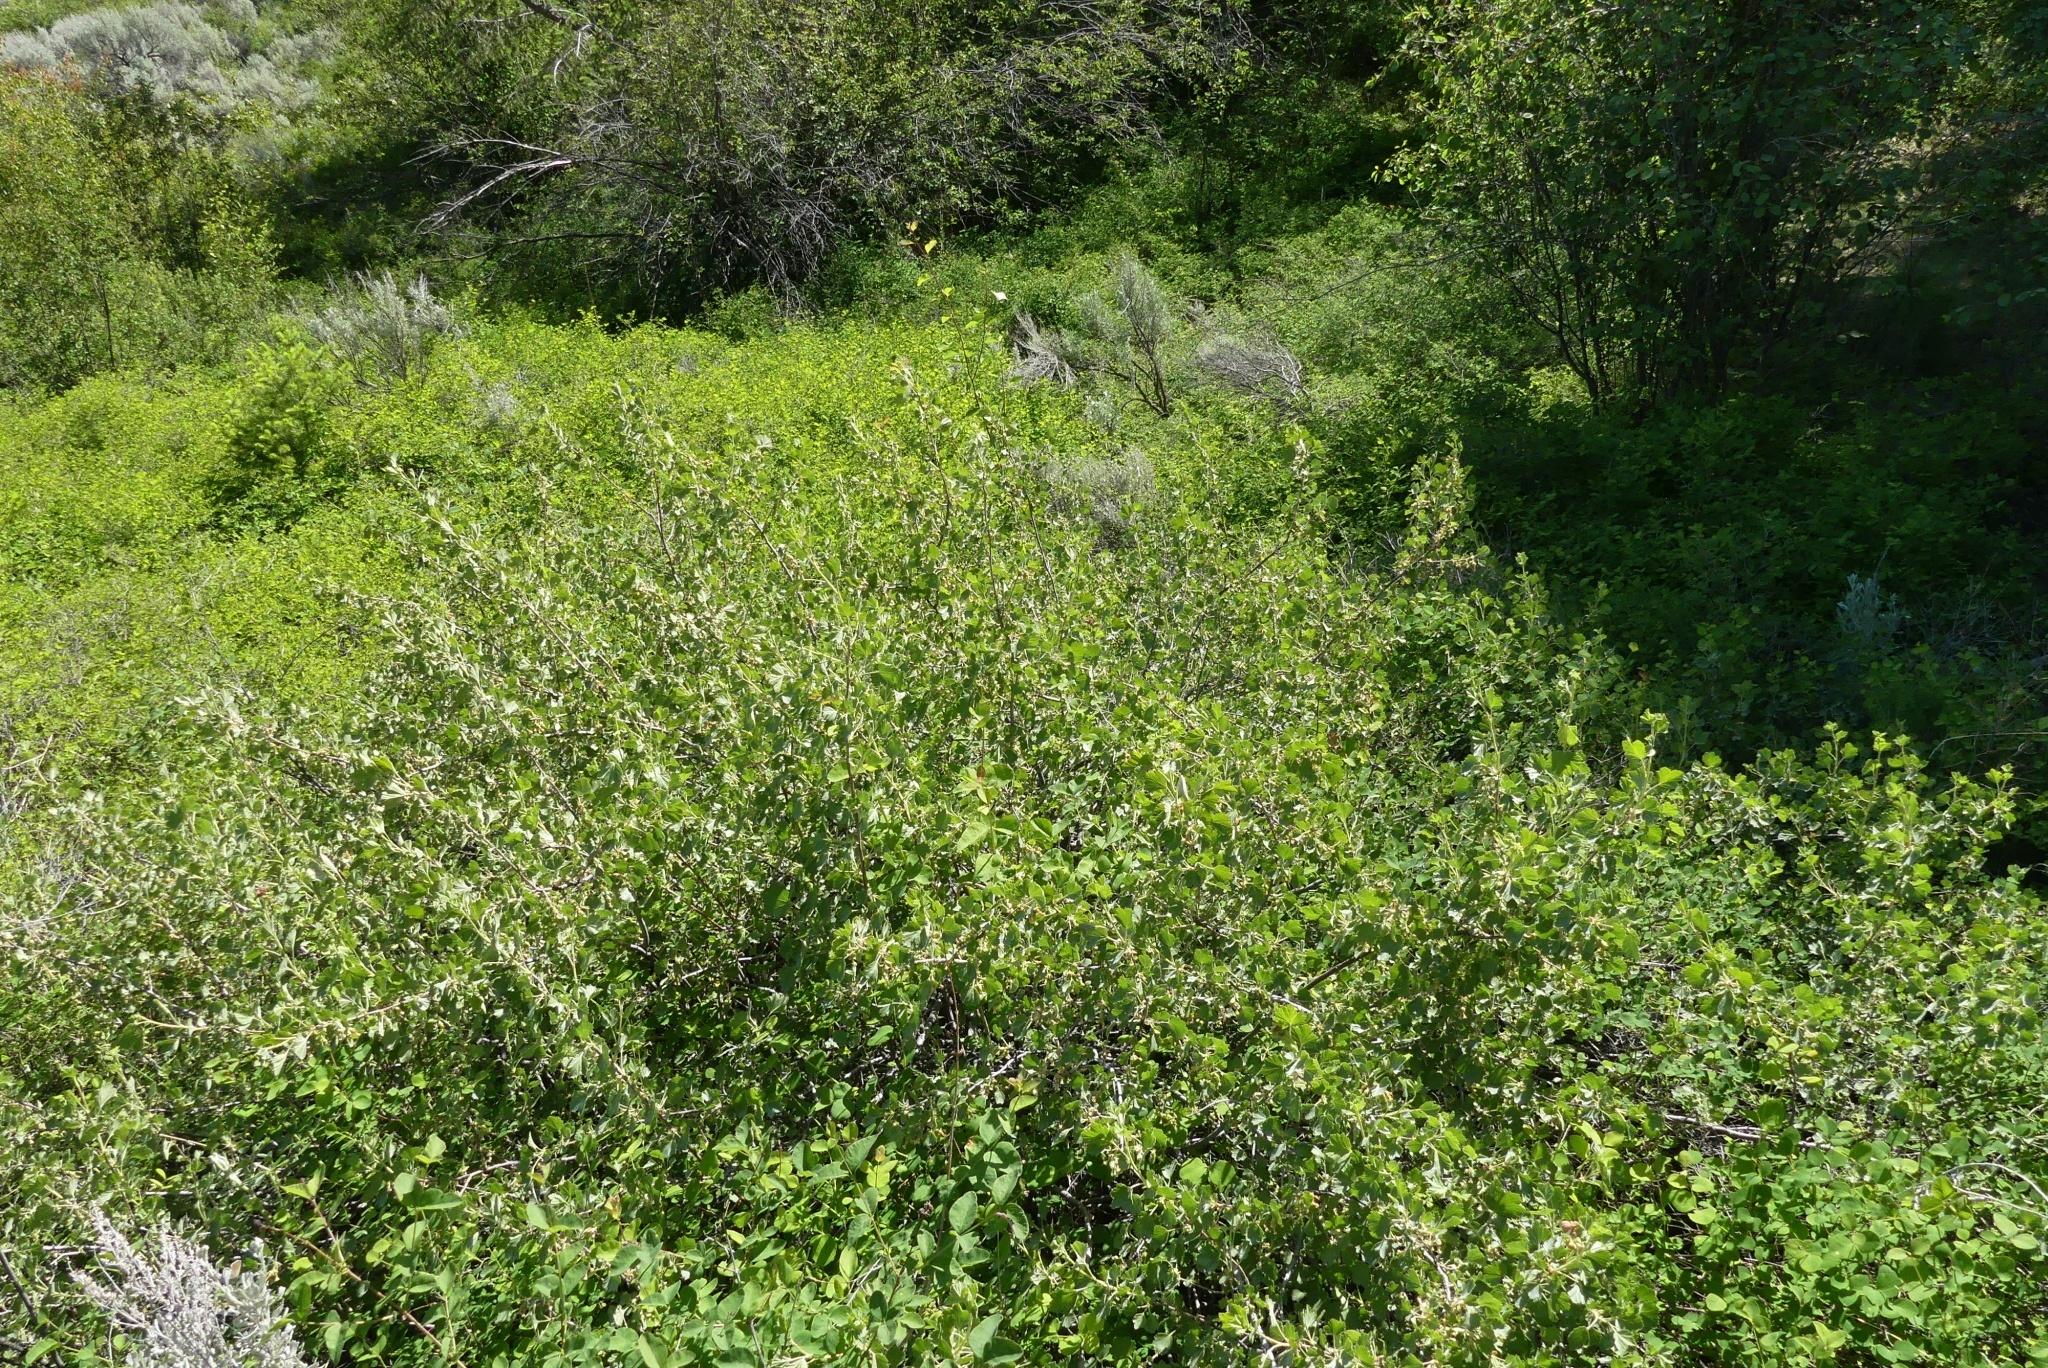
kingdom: Plantae
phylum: Tracheophyta
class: Magnoliopsida
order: Saxifragales
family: Grossulariaceae
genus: Ribes
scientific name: Ribes cereum
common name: Wax currant
